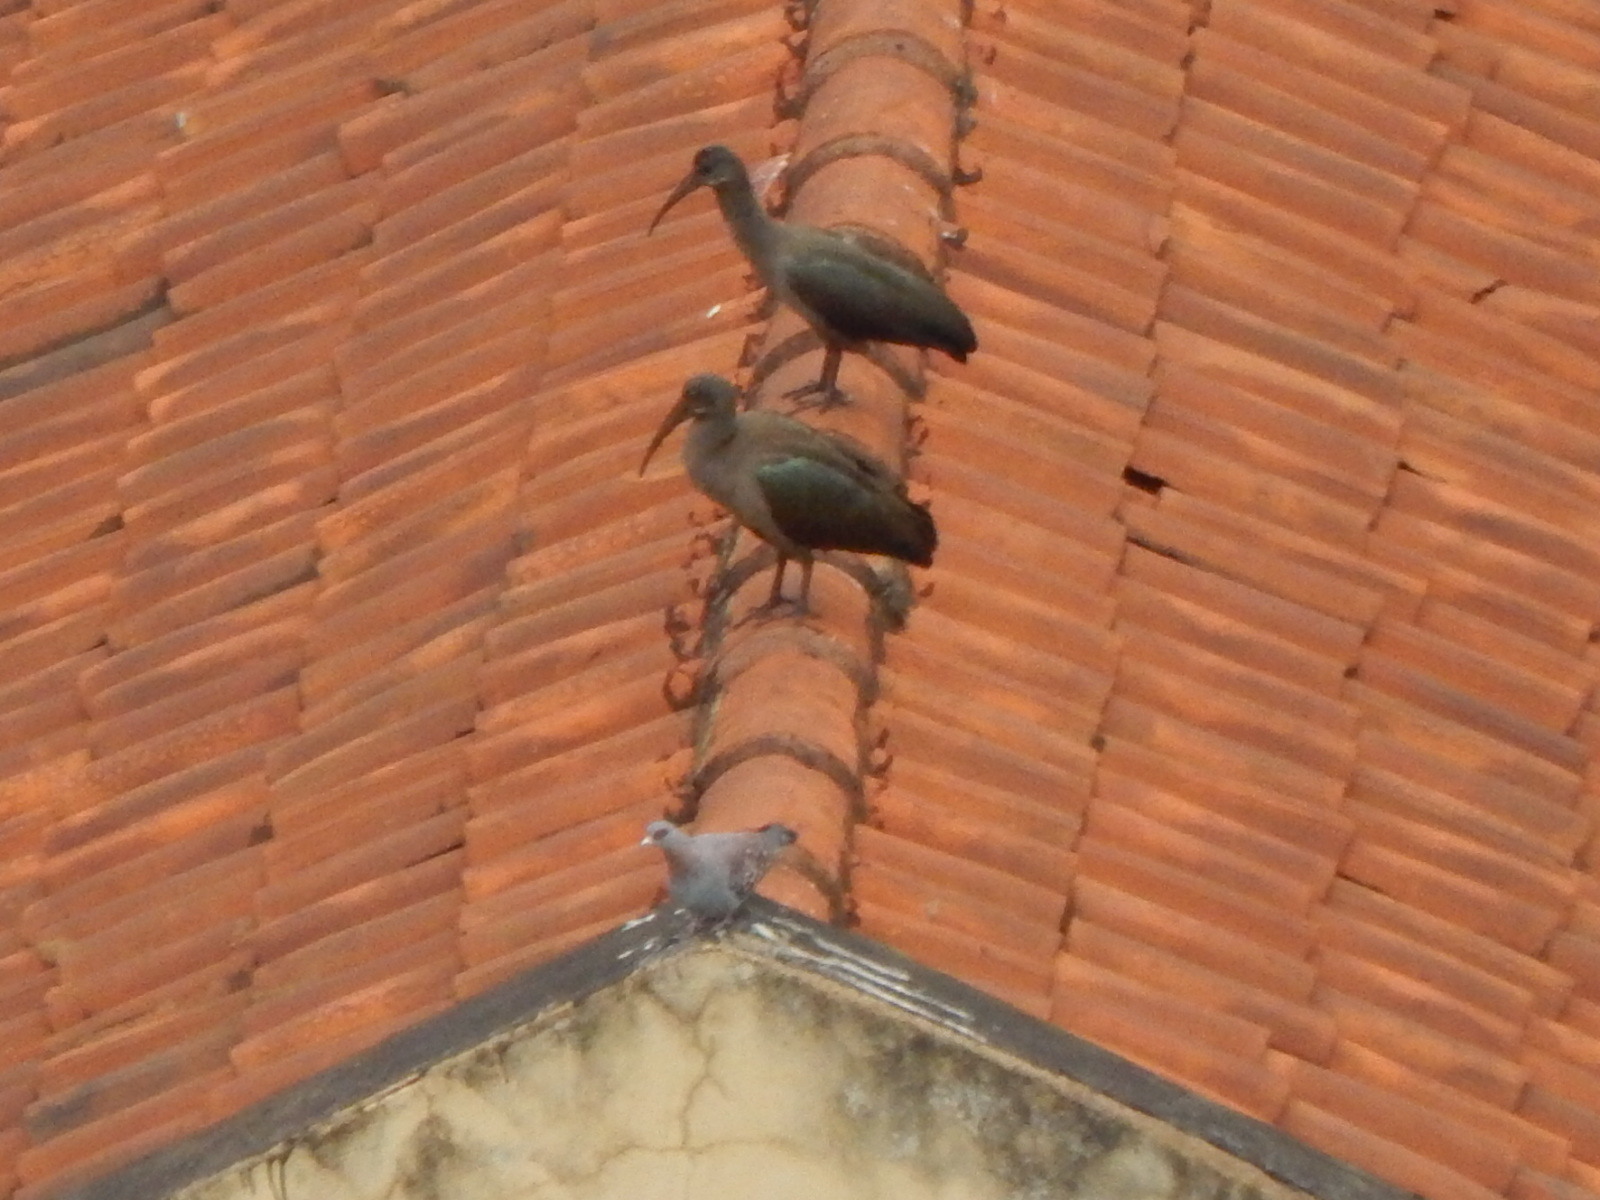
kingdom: Animalia
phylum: Chordata
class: Aves
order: Pelecaniformes
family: Threskiornithidae
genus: Bostrychia
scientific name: Bostrychia hagedash
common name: Hadada ibis
